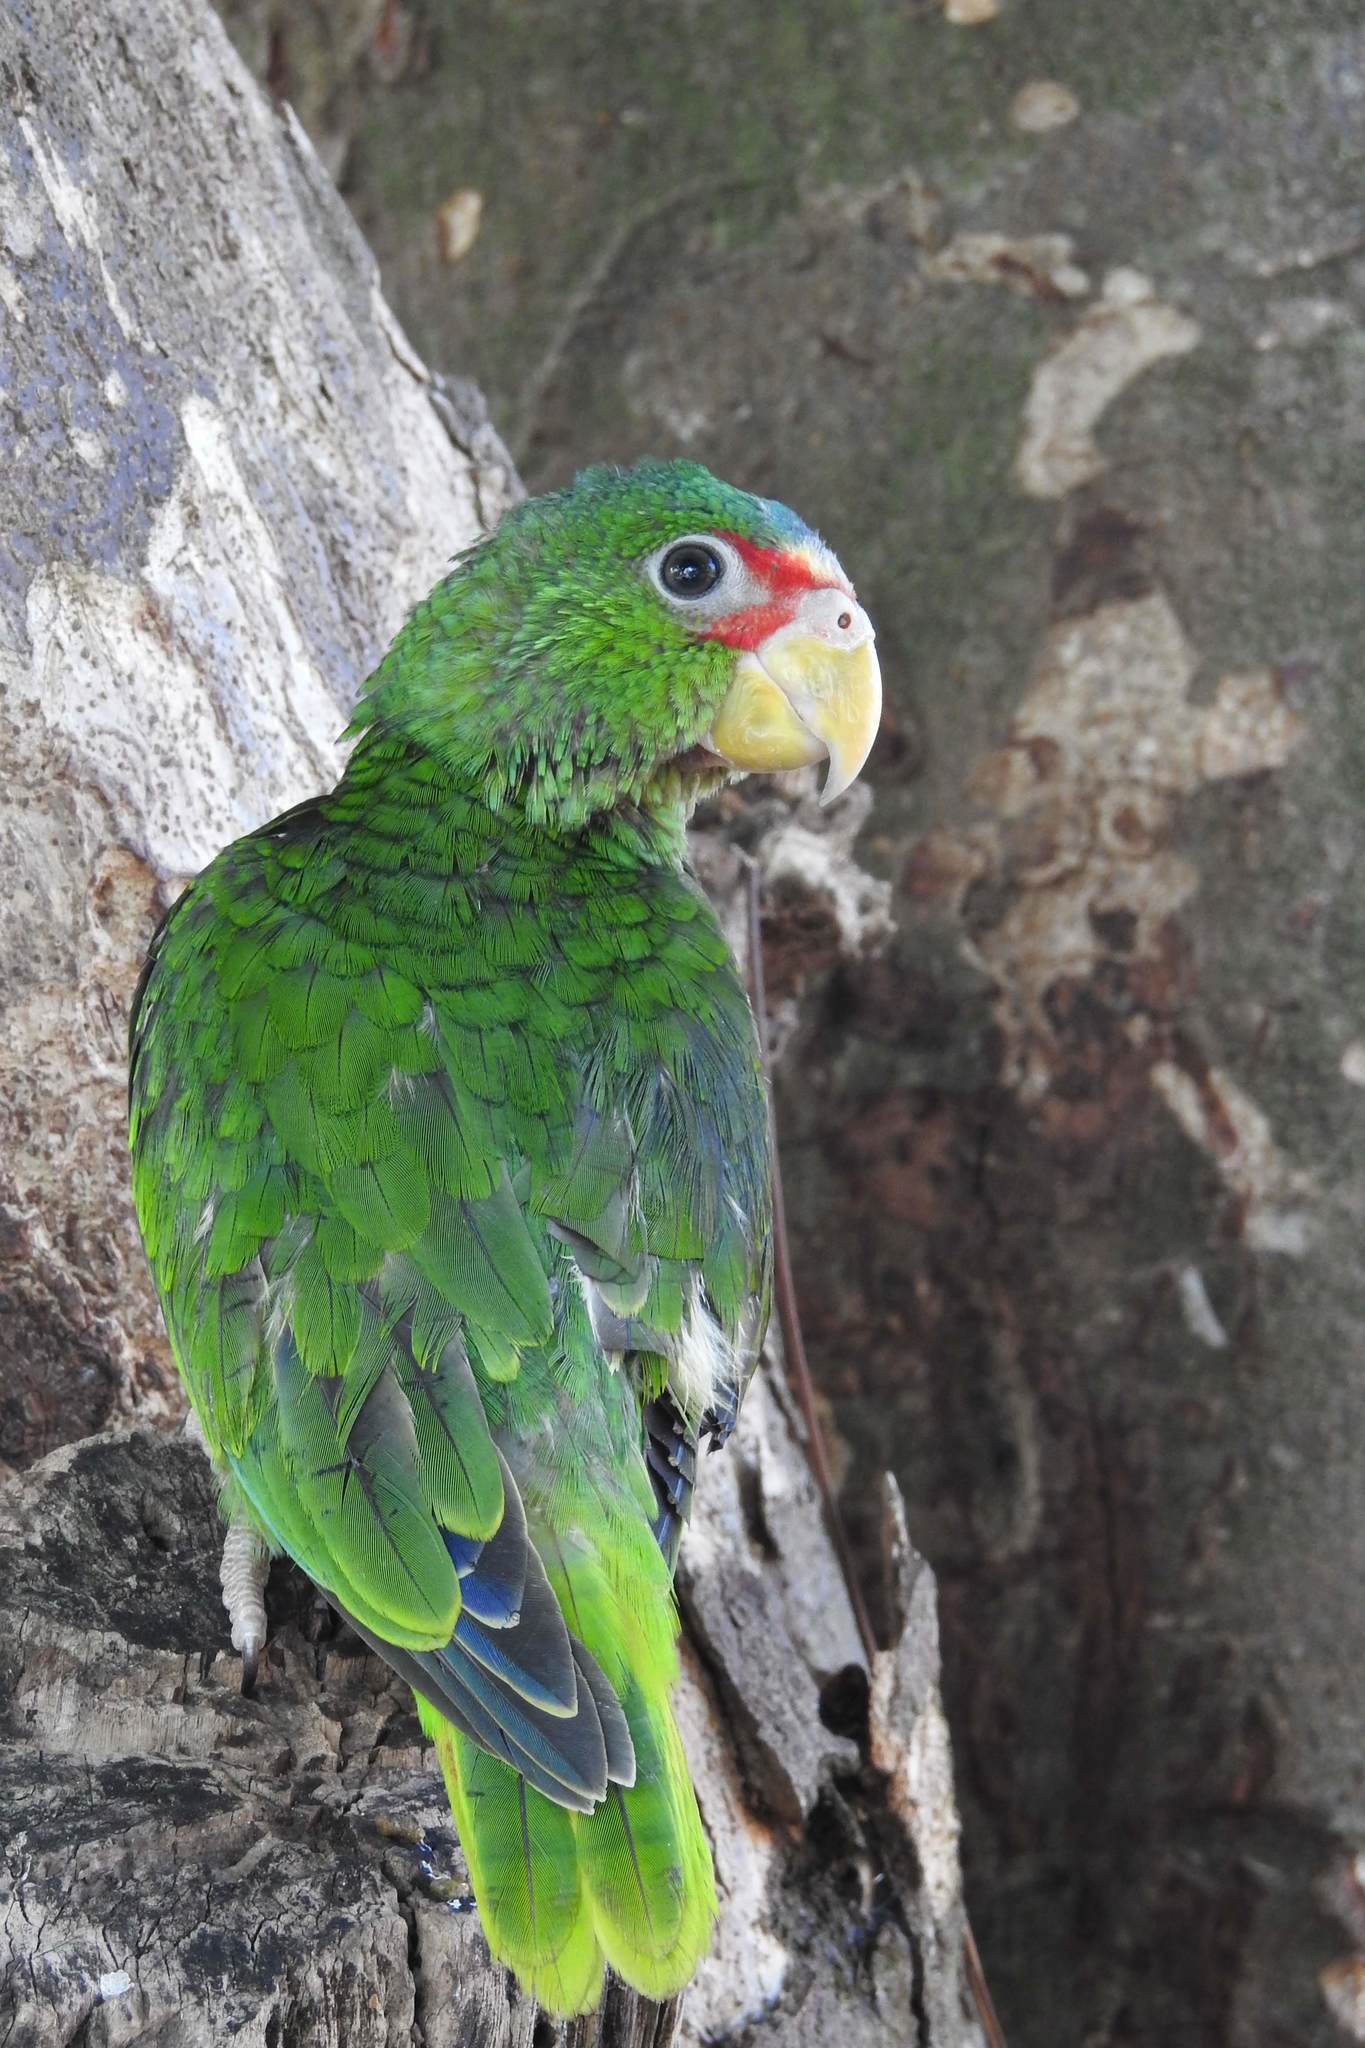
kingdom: Animalia
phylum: Chordata
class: Aves
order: Psittaciformes
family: Psittacidae
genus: Amazona
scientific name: Amazona albifrons
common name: White-fronted amazon
